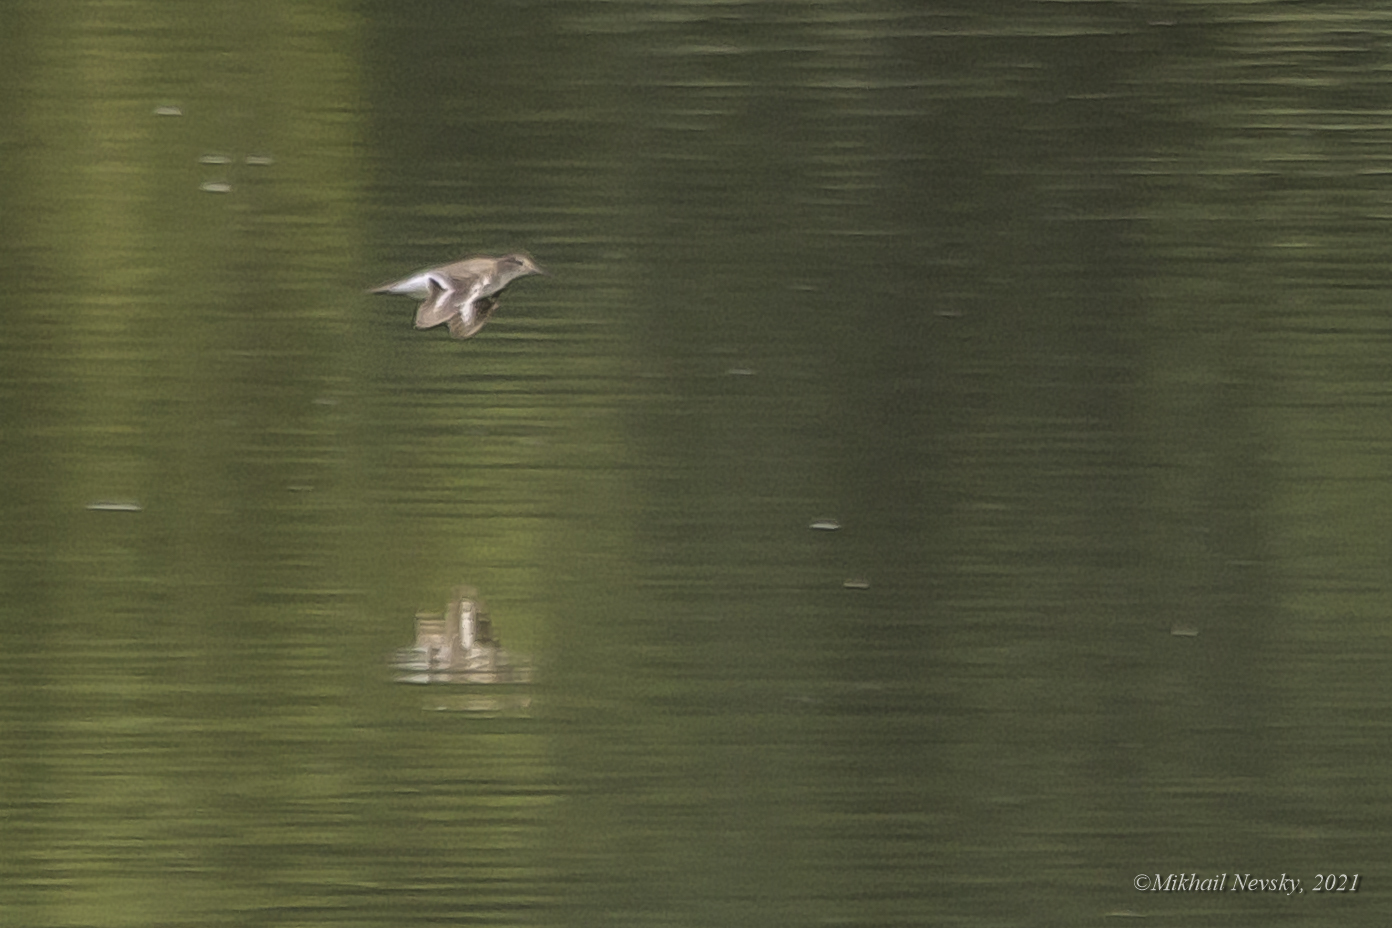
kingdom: Animalia
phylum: Chordata
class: Aves
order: Charadriiformes
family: Scolopacidae
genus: Actitis
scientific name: Actitis hypoleucos
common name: Common sandpiper
